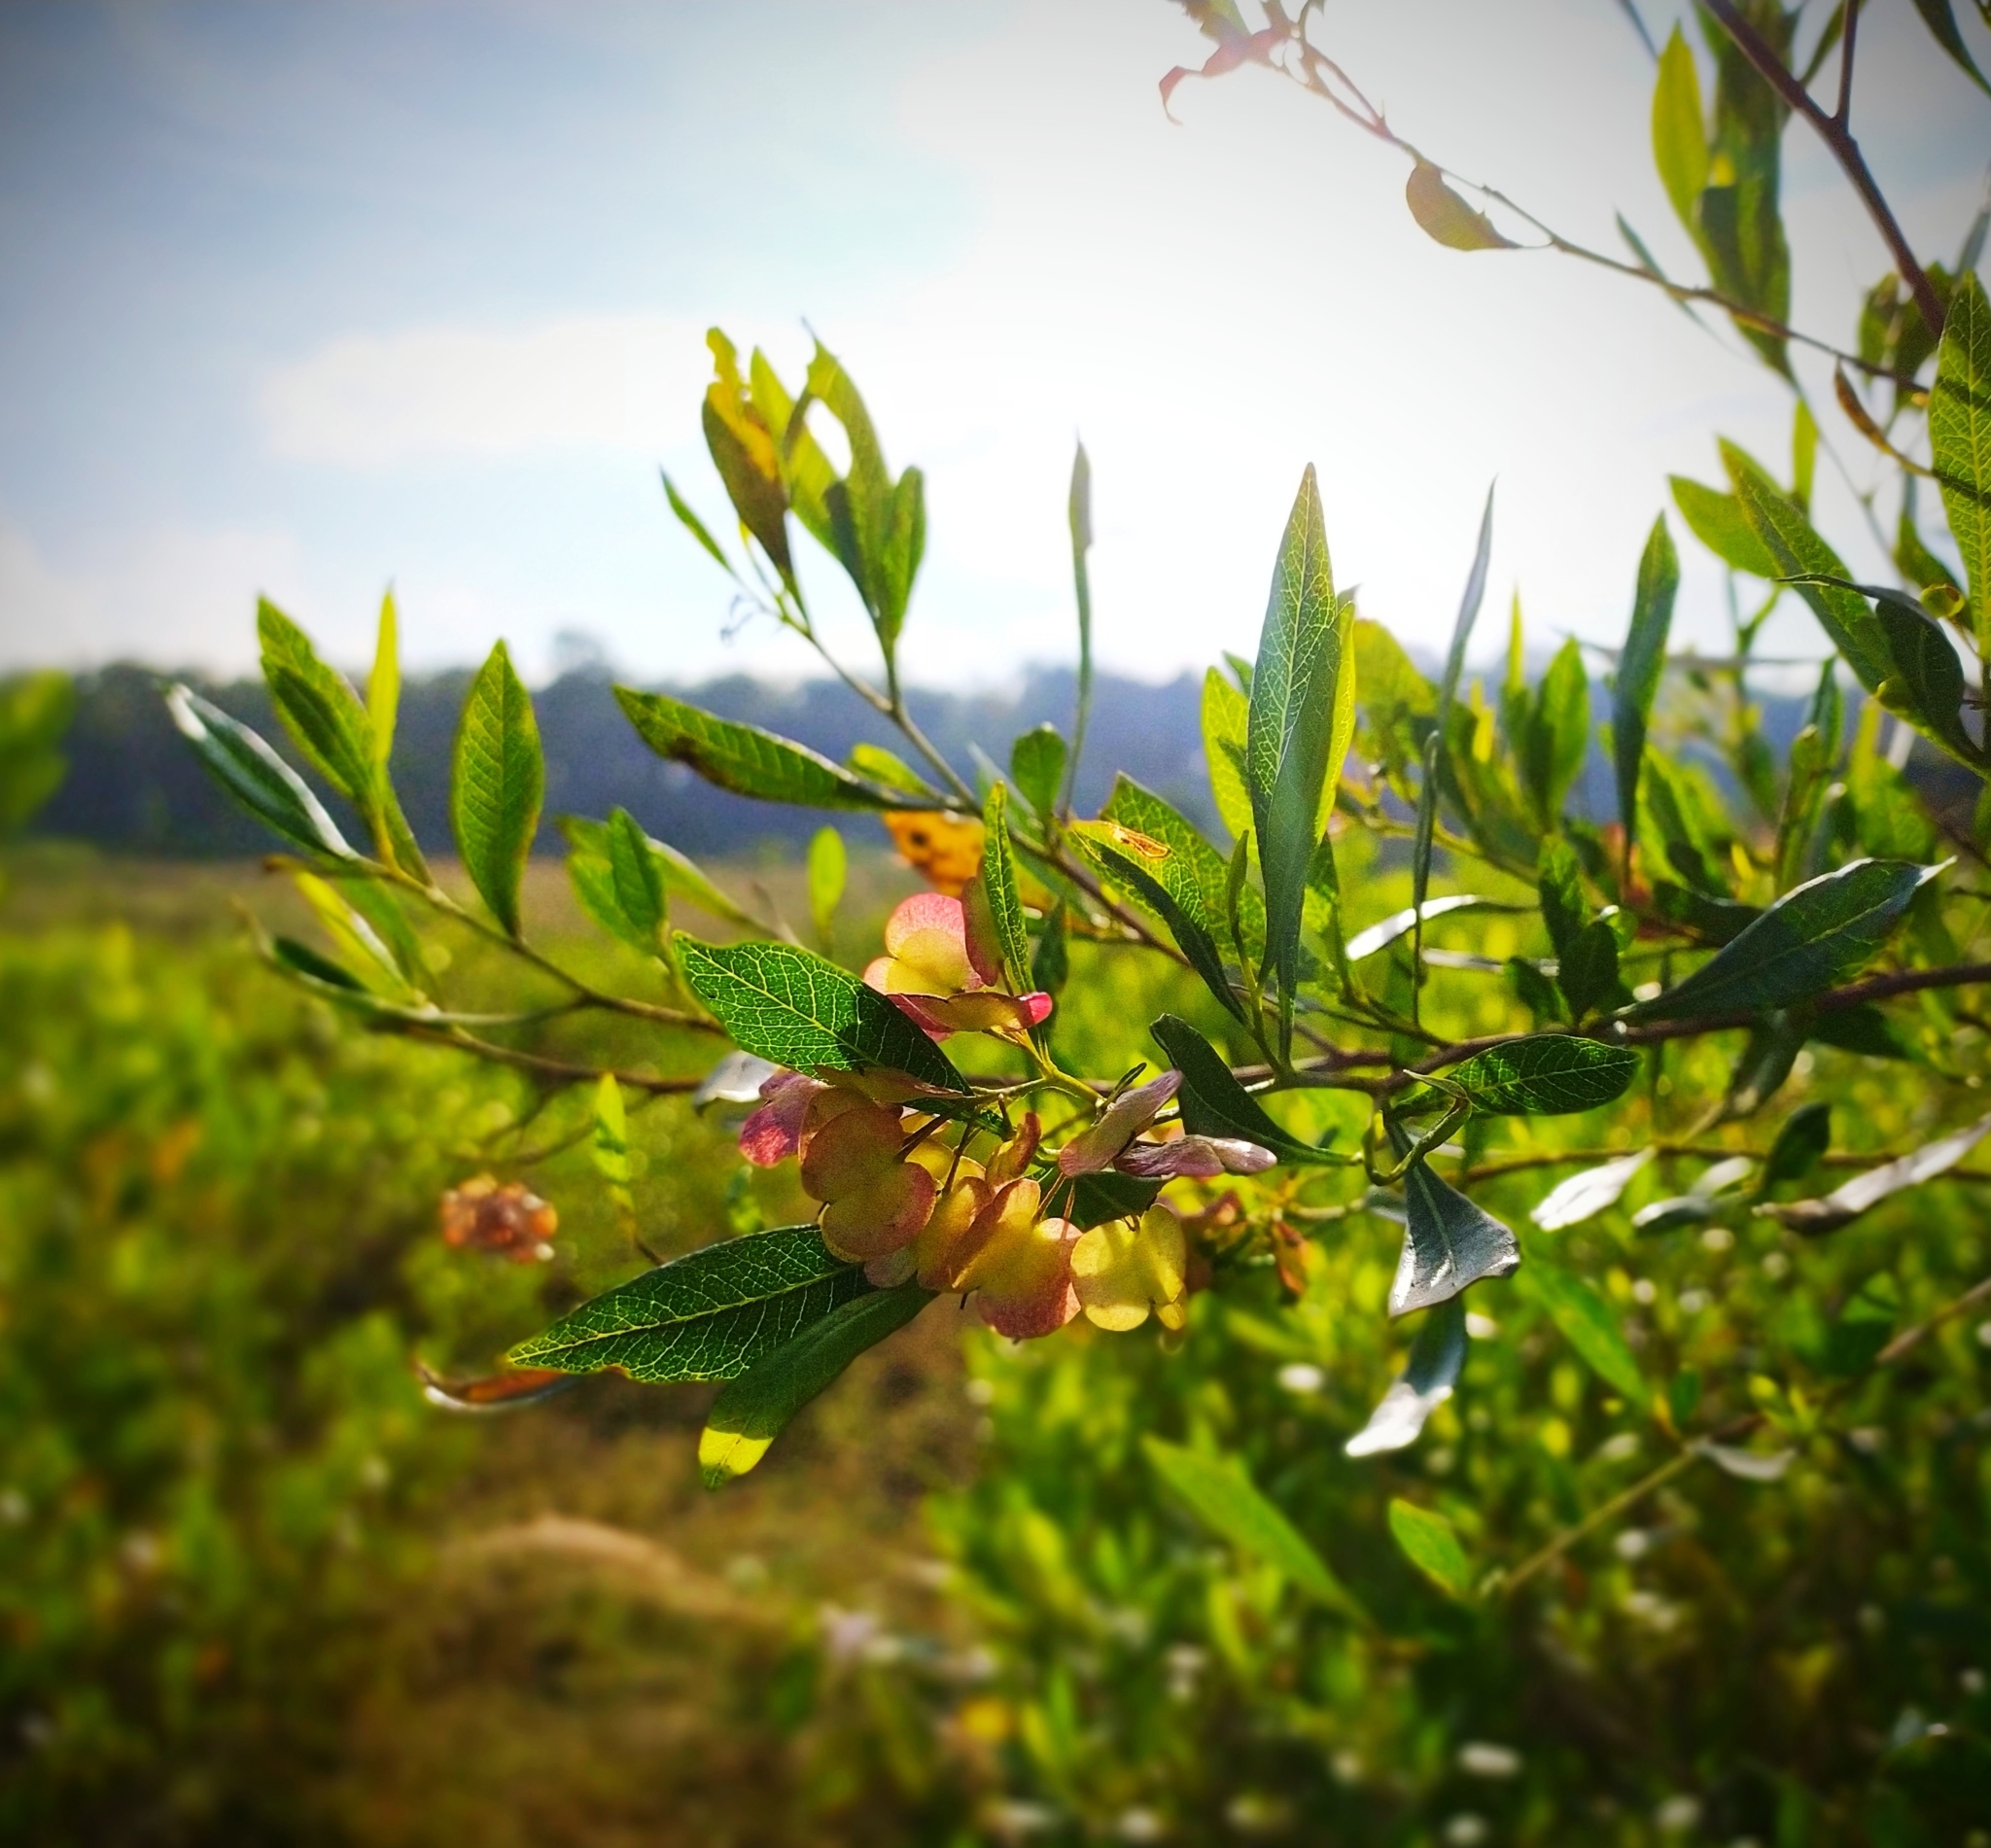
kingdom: Plantae
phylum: Tracheophyta
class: Magnoliopsida
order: Sapindales
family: Sapindaceae
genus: Dodonaea
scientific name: Dodonaea viscosa
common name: Hopbush
